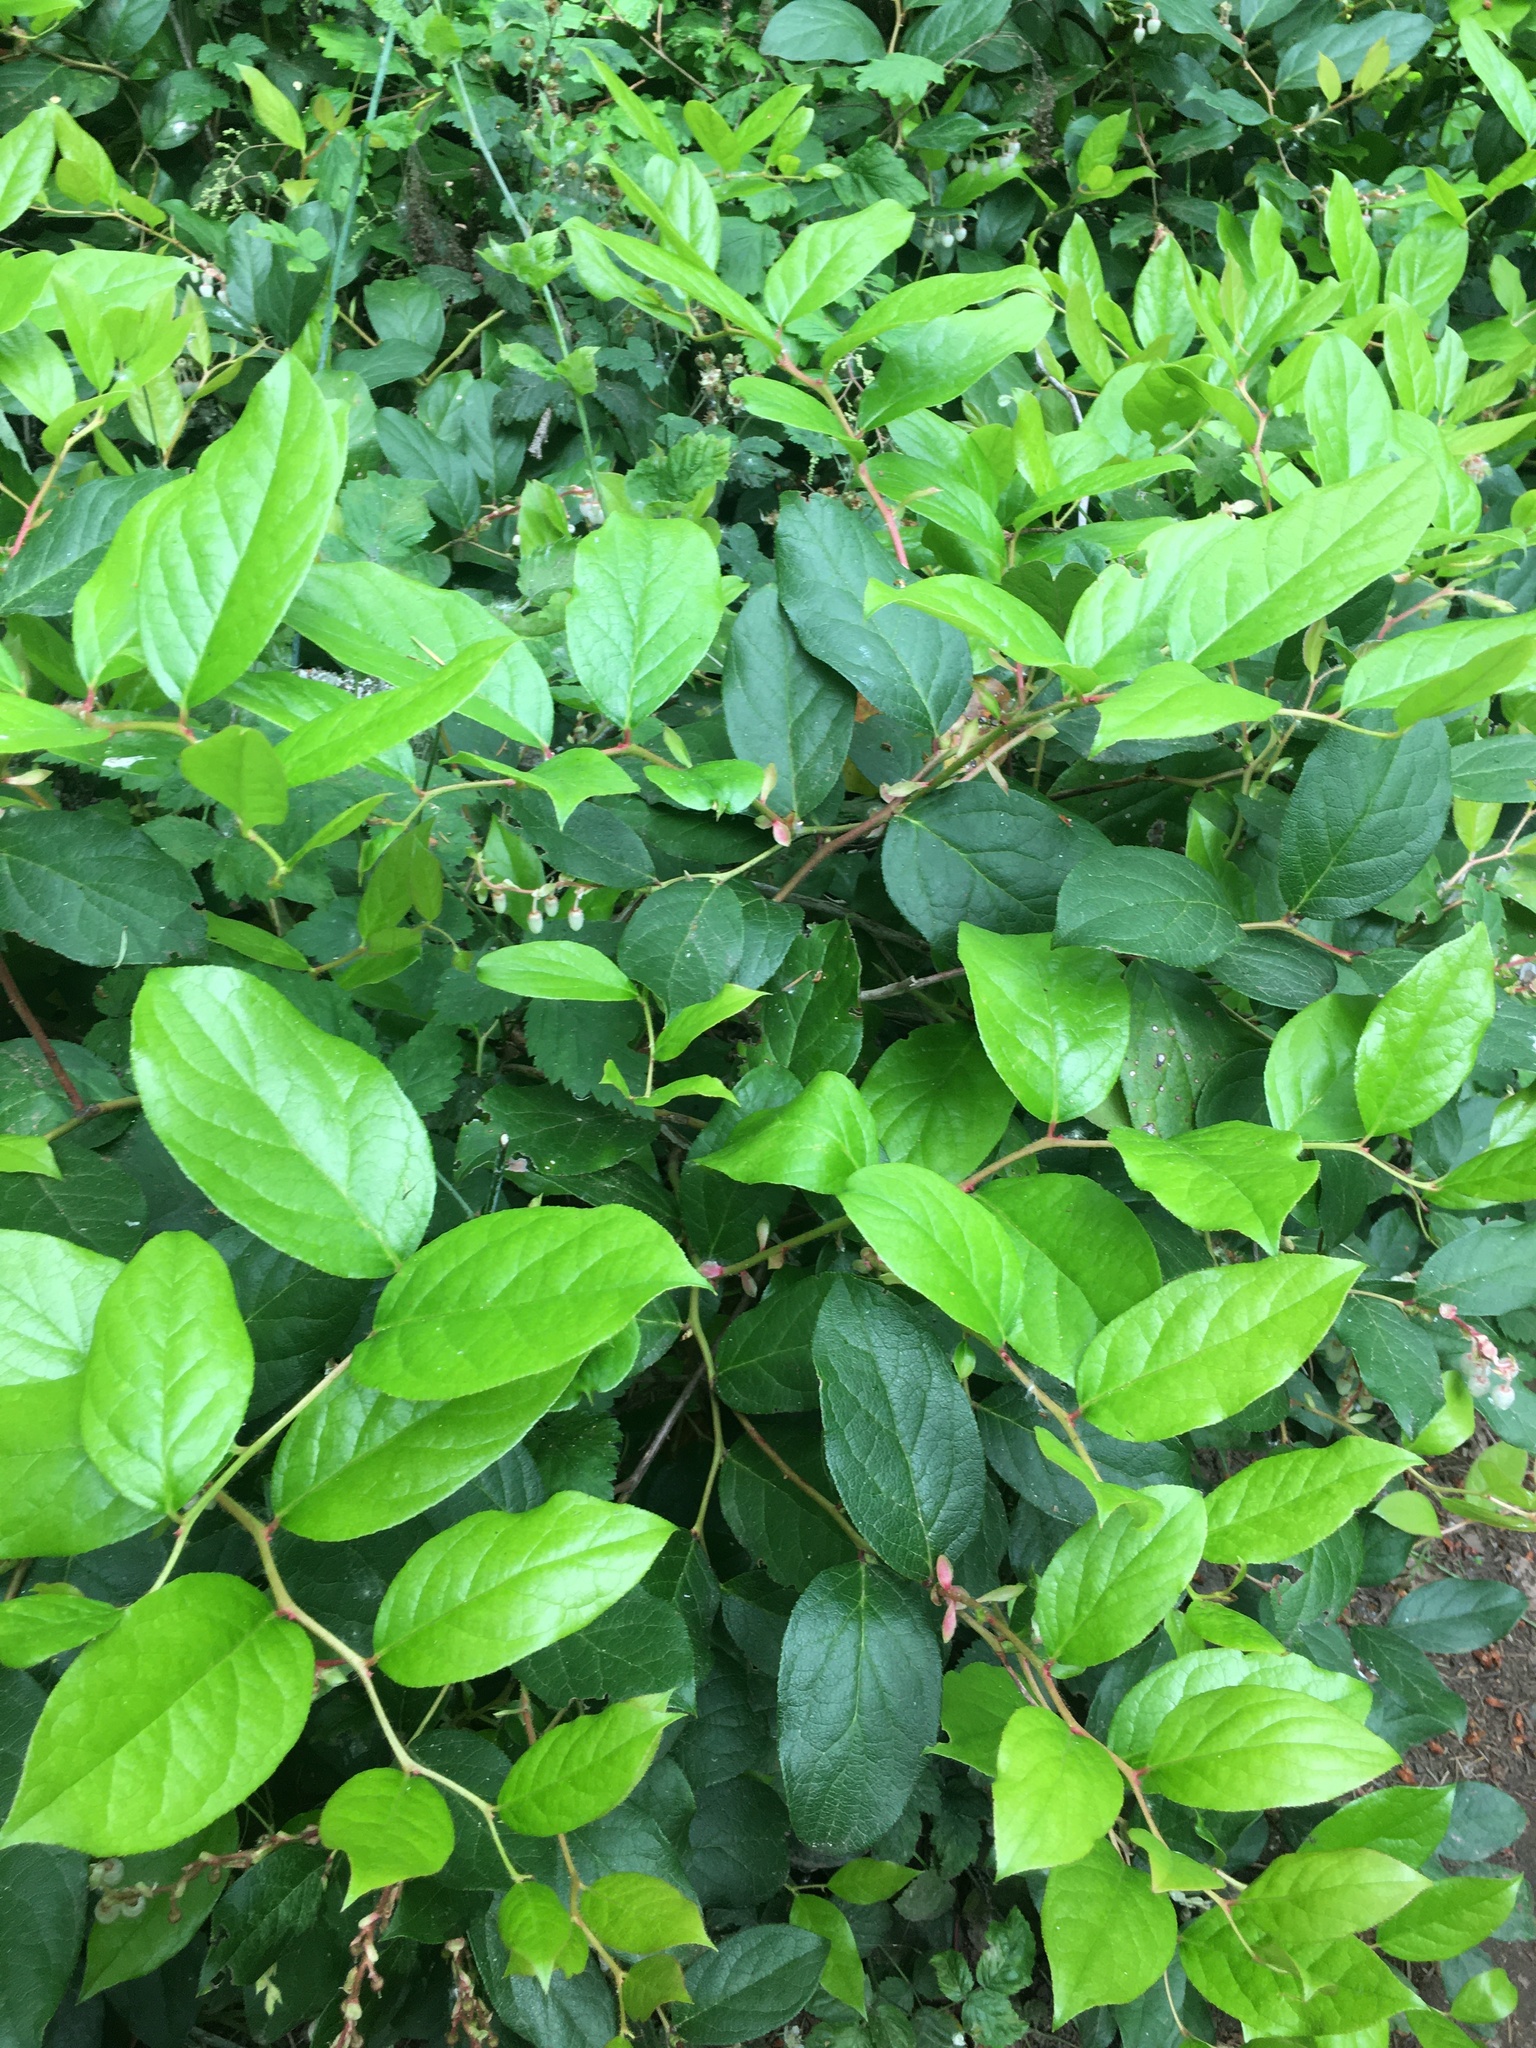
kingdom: Plantae
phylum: Tracheophyta
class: Magnoliopsida
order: Ericales
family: Ericaceae
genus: Gaultheria
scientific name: Gaultheria shallon
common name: Shallon
